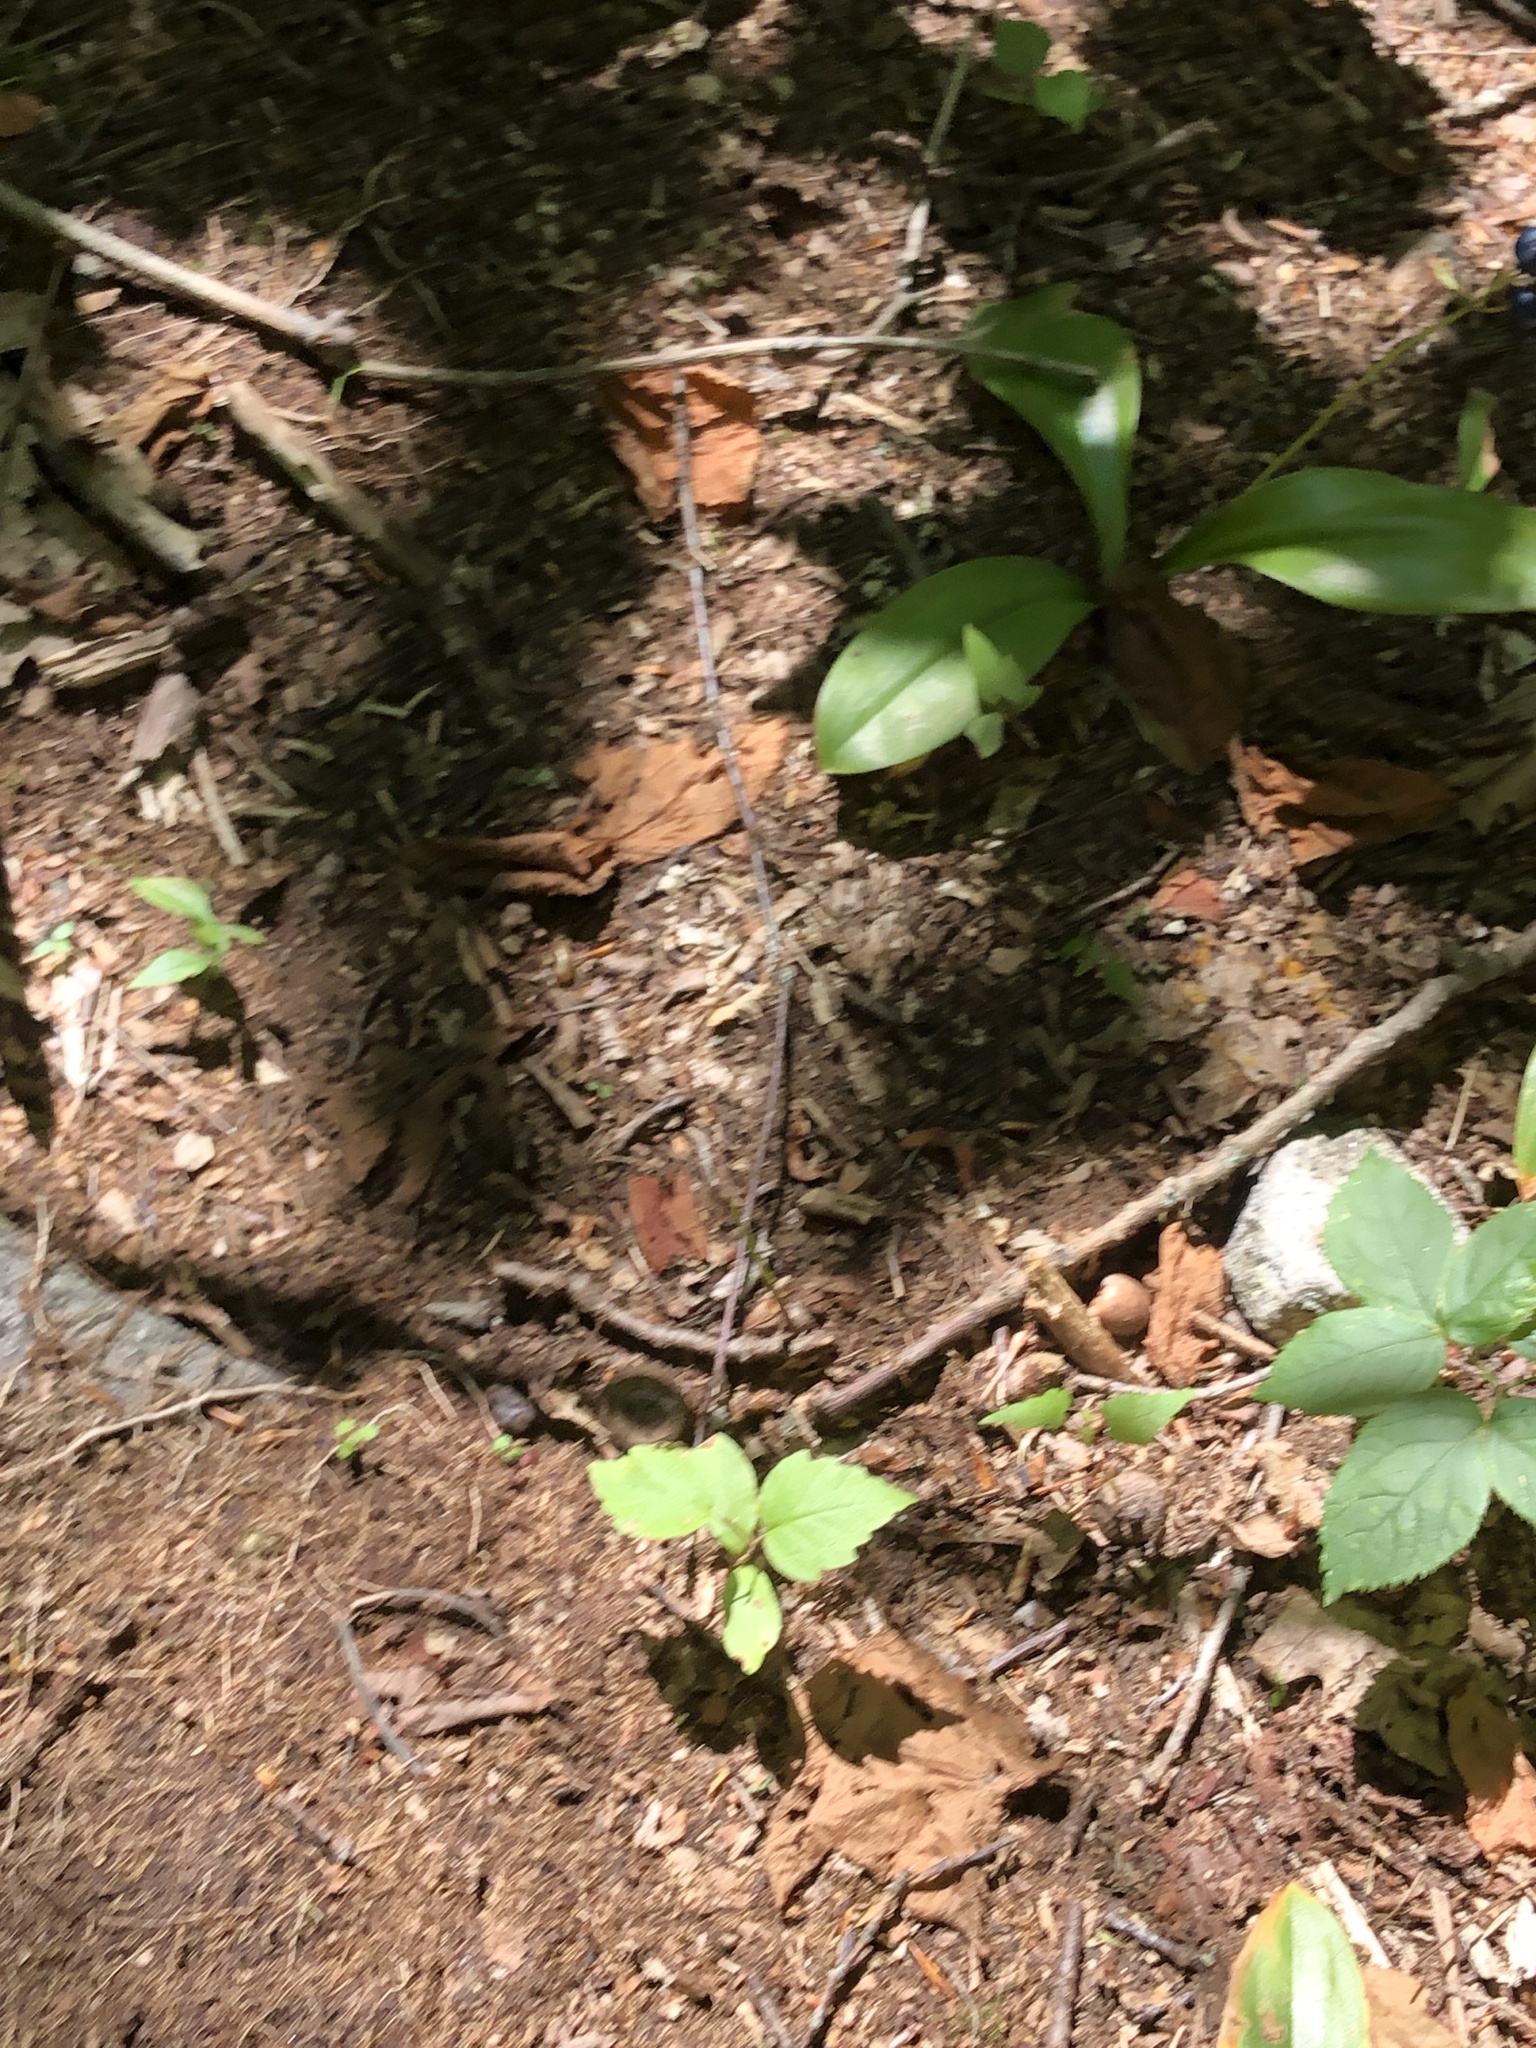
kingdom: Plantae
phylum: Tracheophyta
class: Liliopsida
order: Liliales
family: Liliaceae
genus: Clintonia
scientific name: Clintonia borealis
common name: Yellow clintonia
